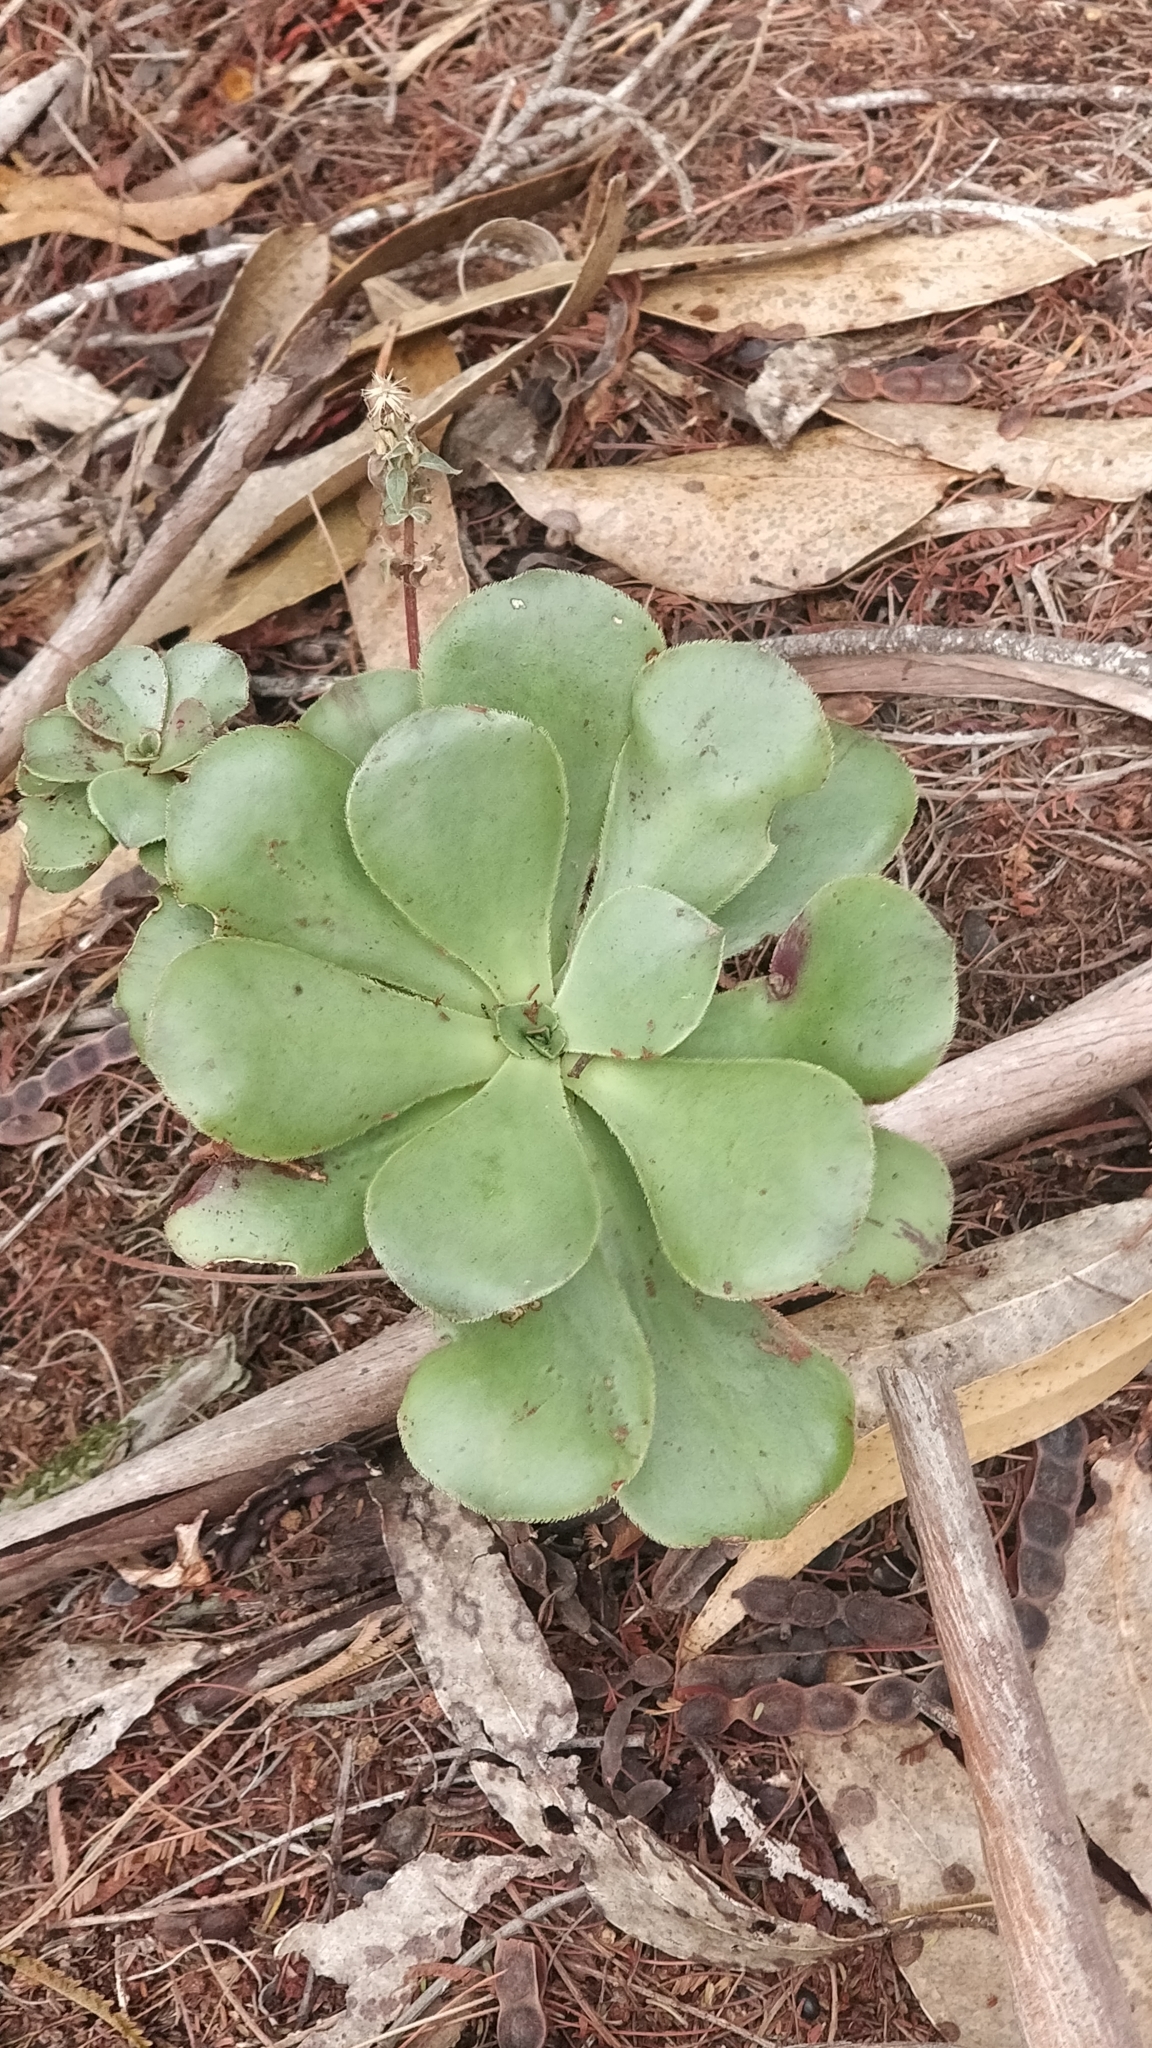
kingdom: Plantae
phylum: Tracheophyta
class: Magnoliopsida
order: Saxifragales
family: Crassulaceae
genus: Aeonium
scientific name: Aeonium glutinosum
